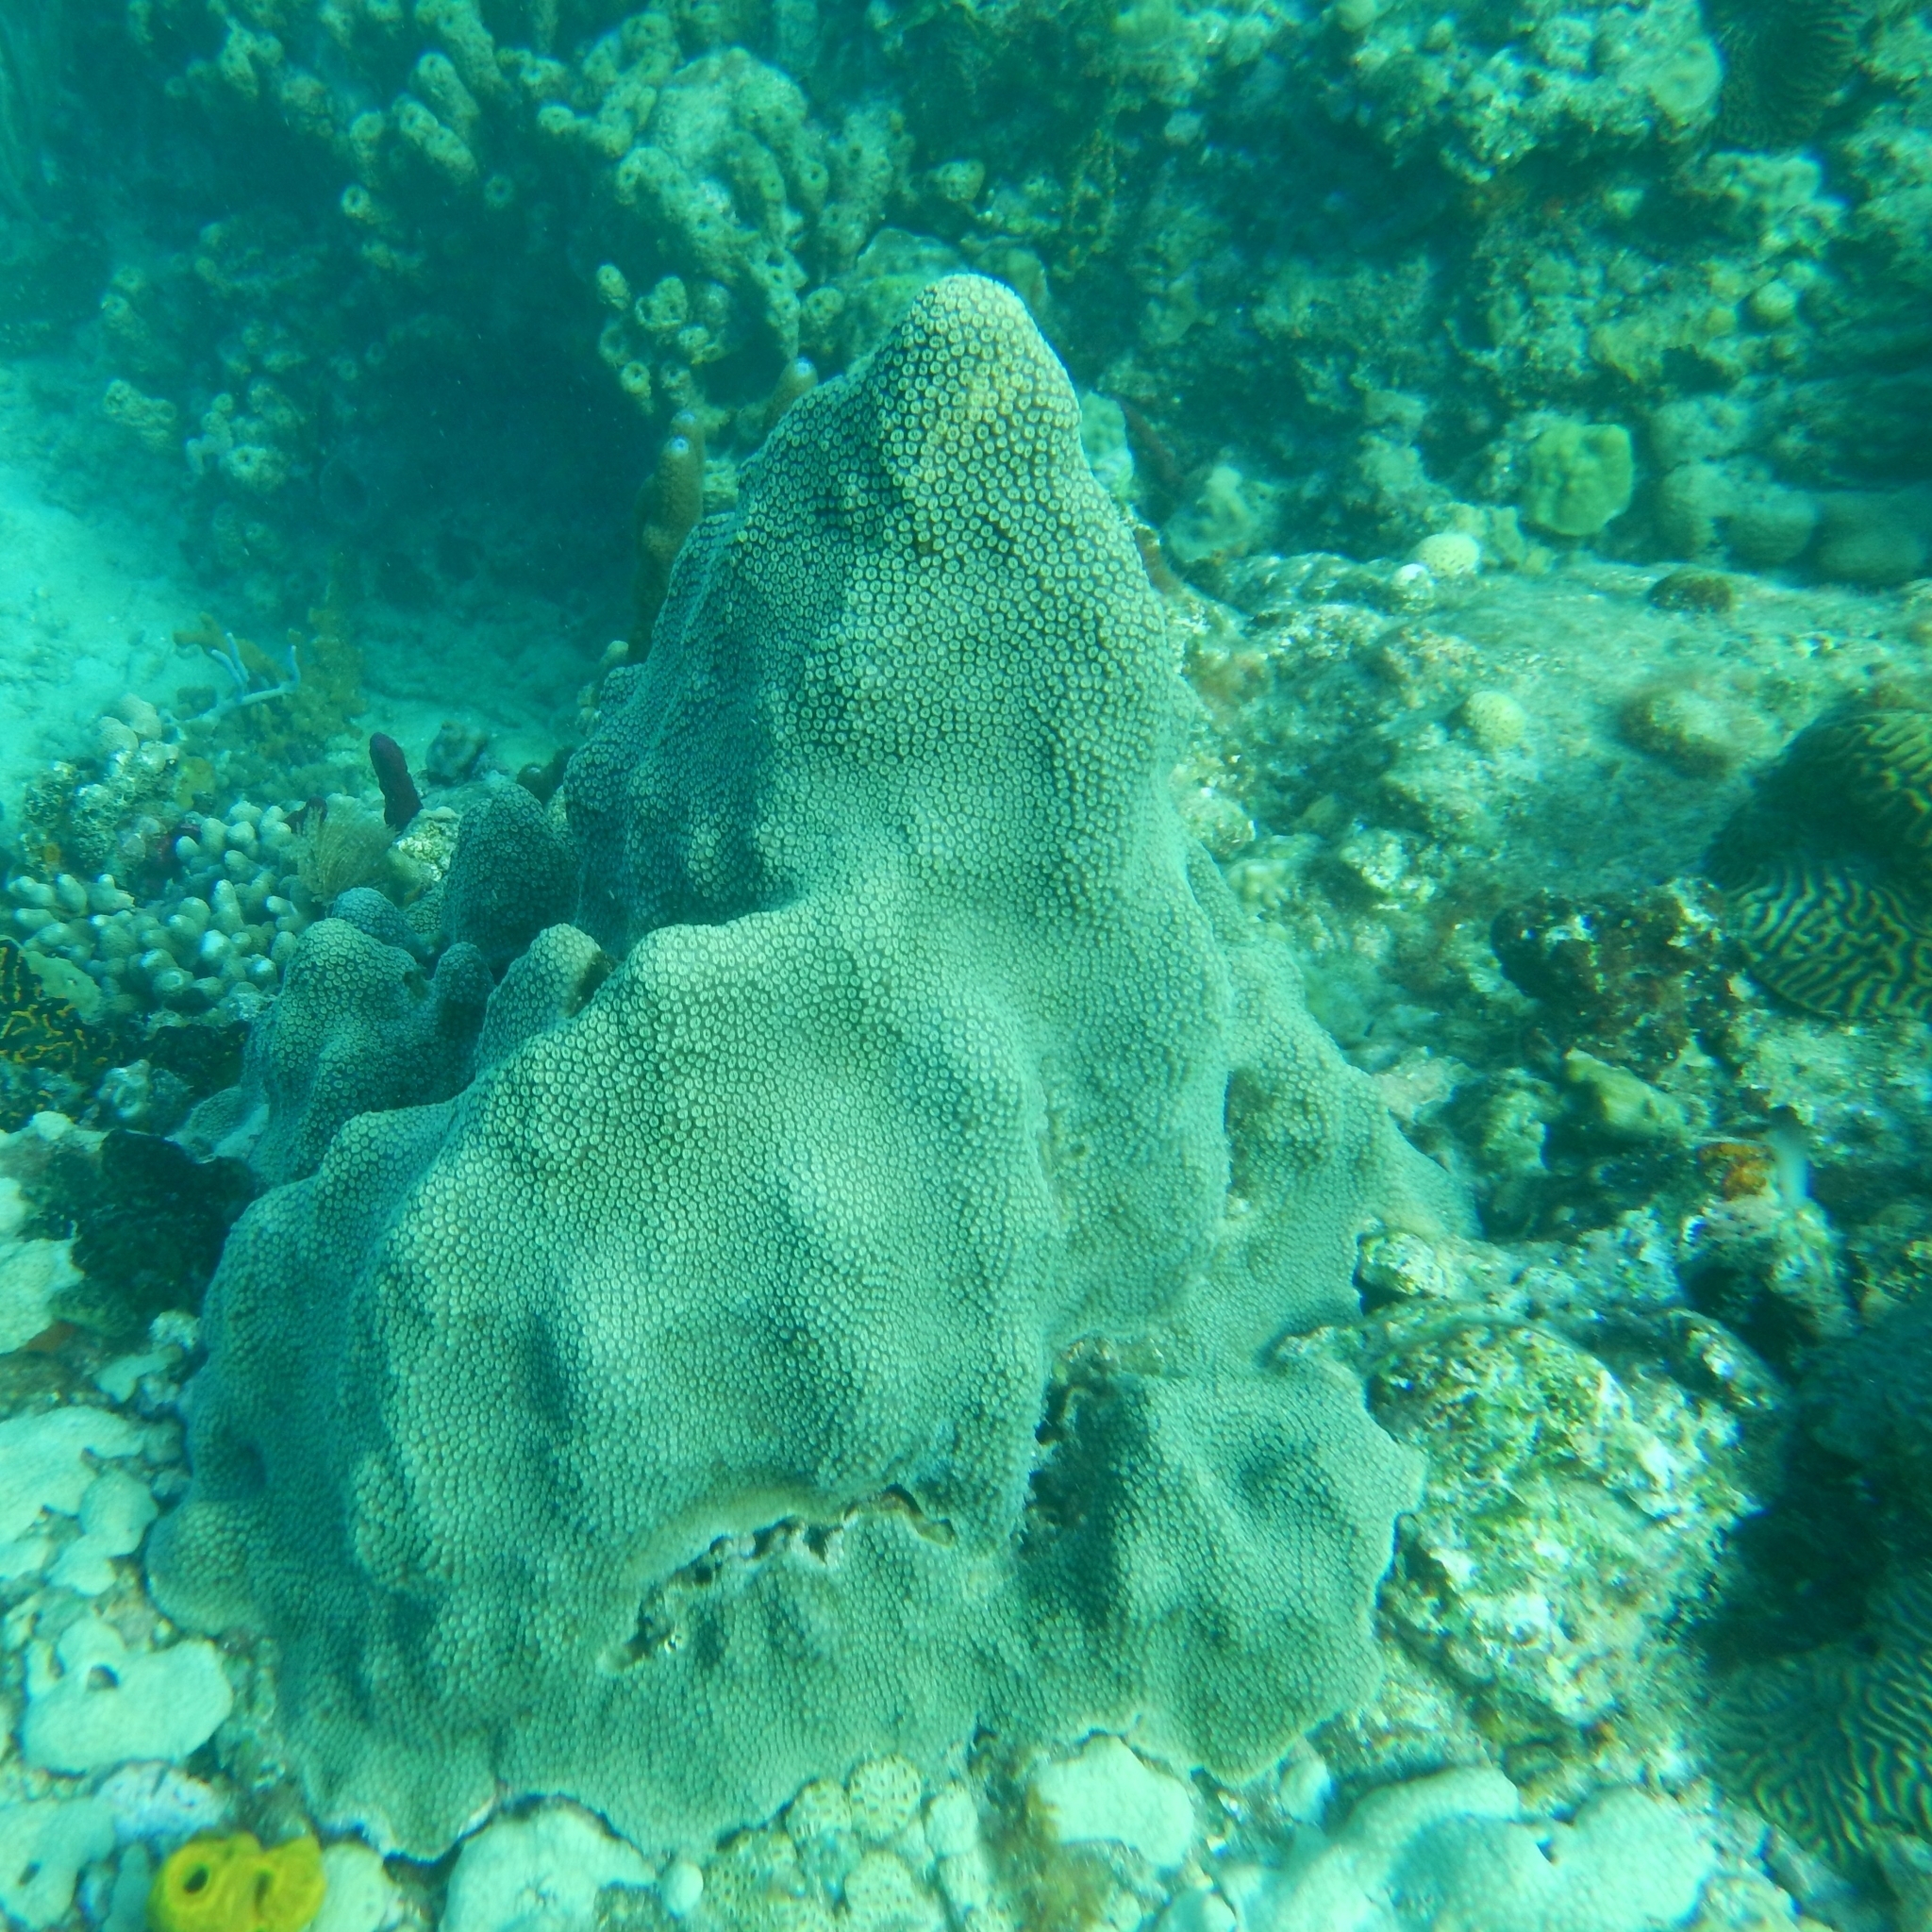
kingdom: Animalia
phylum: Cnidaria
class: Anthozoa
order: Scleractinia
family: Merulinidae
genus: Orbicella
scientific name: Orbicella faveolata
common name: Mountainous star coral
